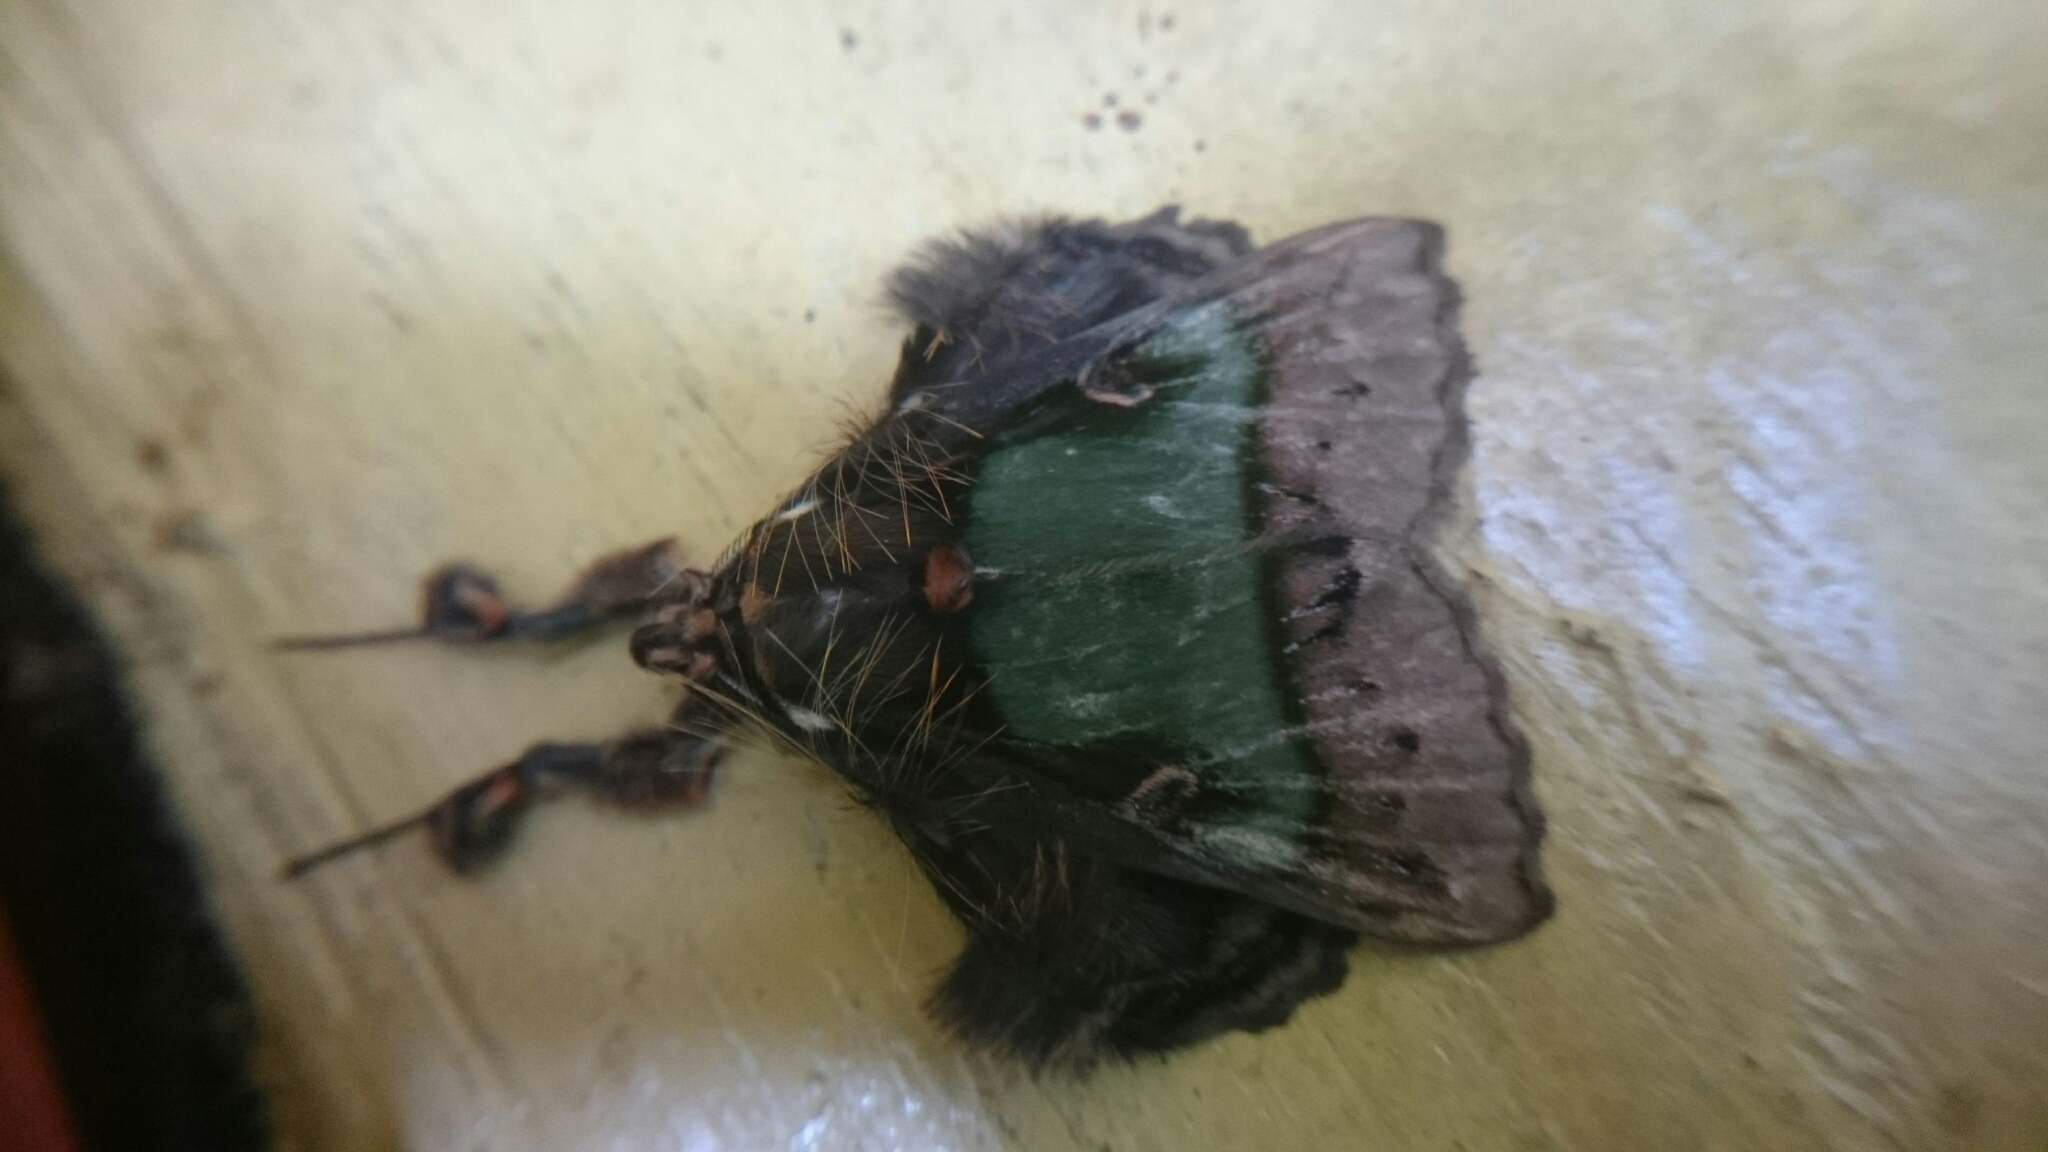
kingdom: Animalia
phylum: Arthropoda
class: Insecta
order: Lepidoptera
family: Erebidae
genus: Ceroctena
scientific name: Ceroctena amynta
